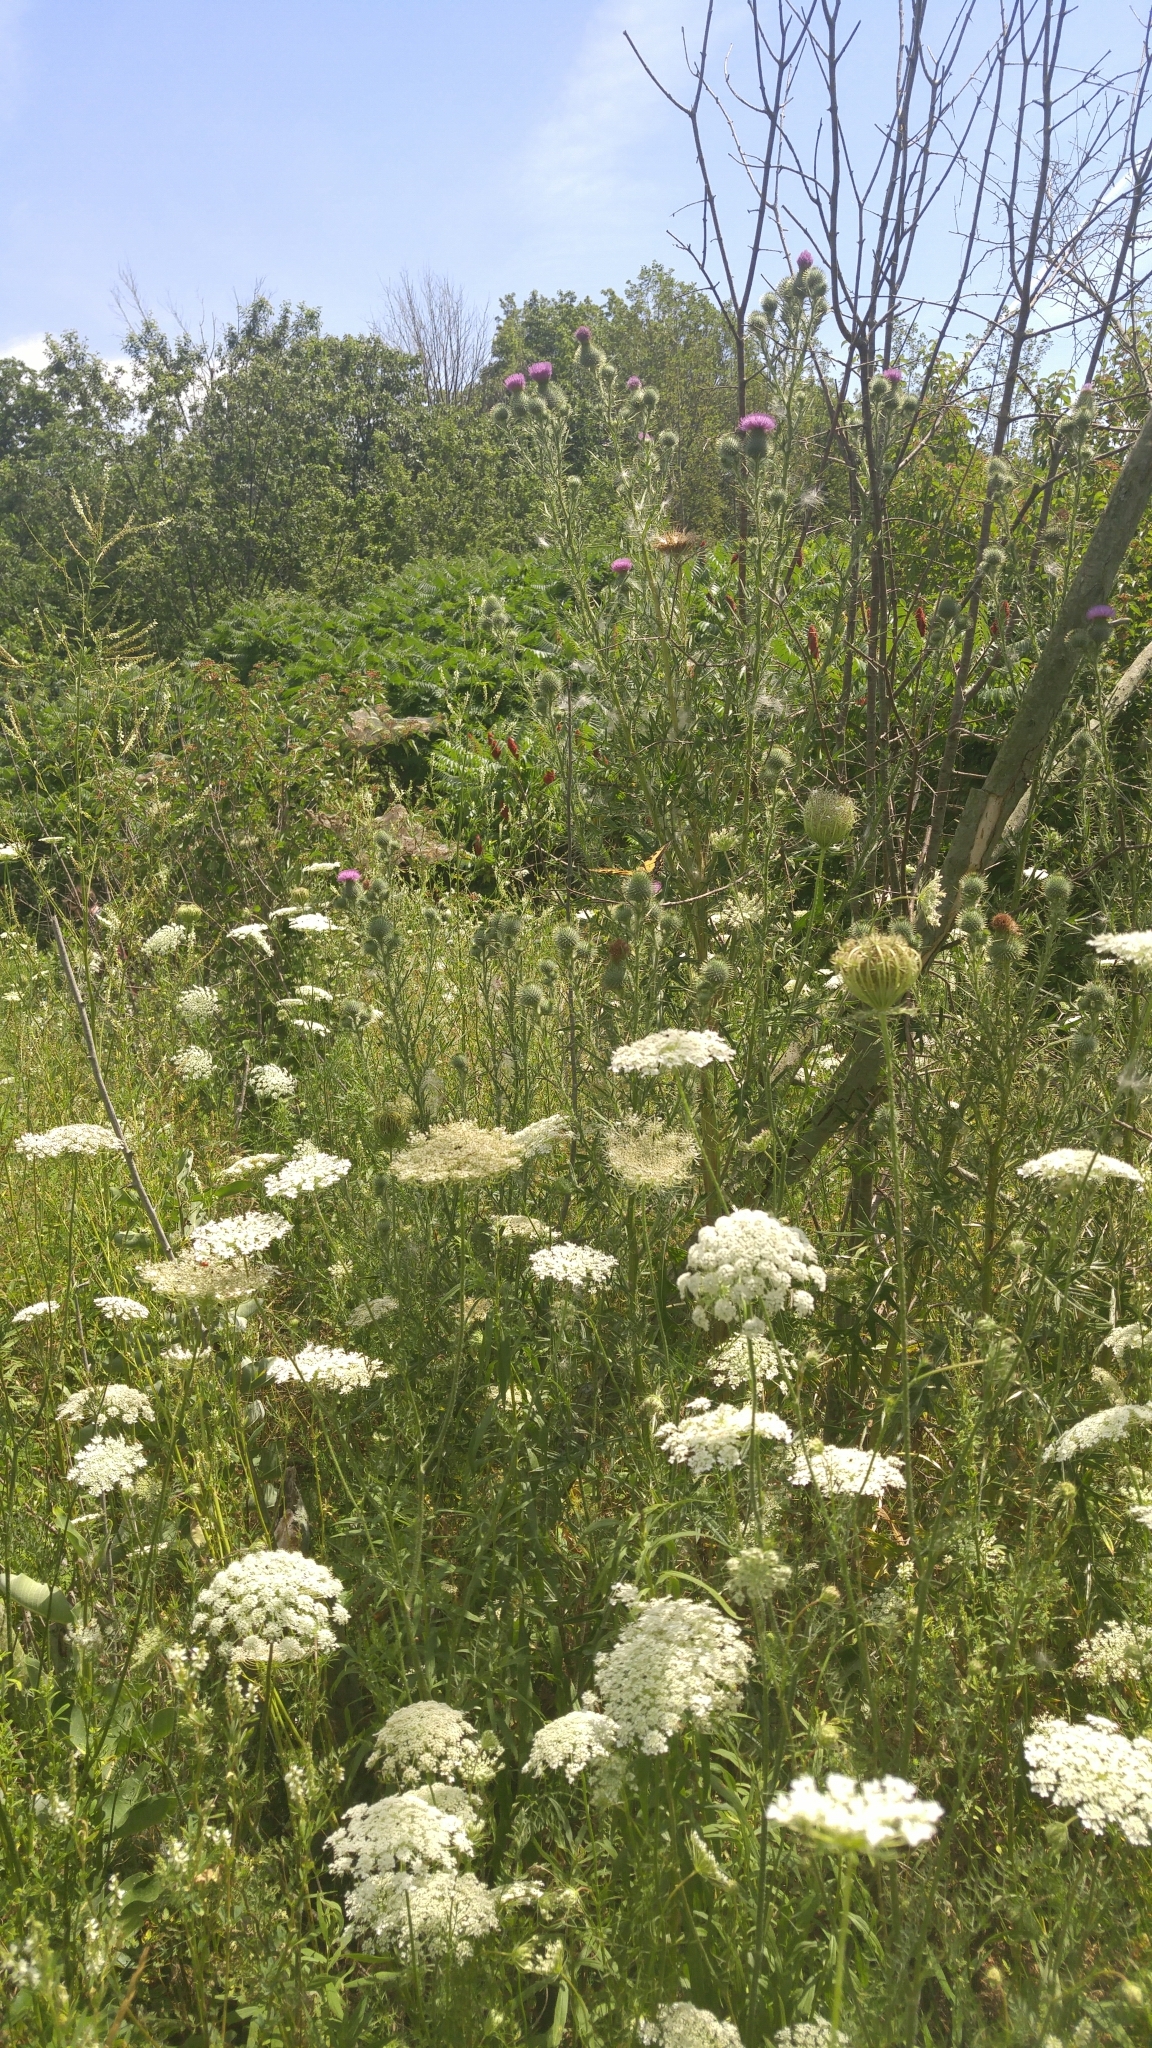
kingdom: Animalia
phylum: Arthropoda
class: Insecta
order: Lepidoptera
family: Papilionidae
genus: Papilio
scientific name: Papilio glaucus
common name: Tiger swallowtail
